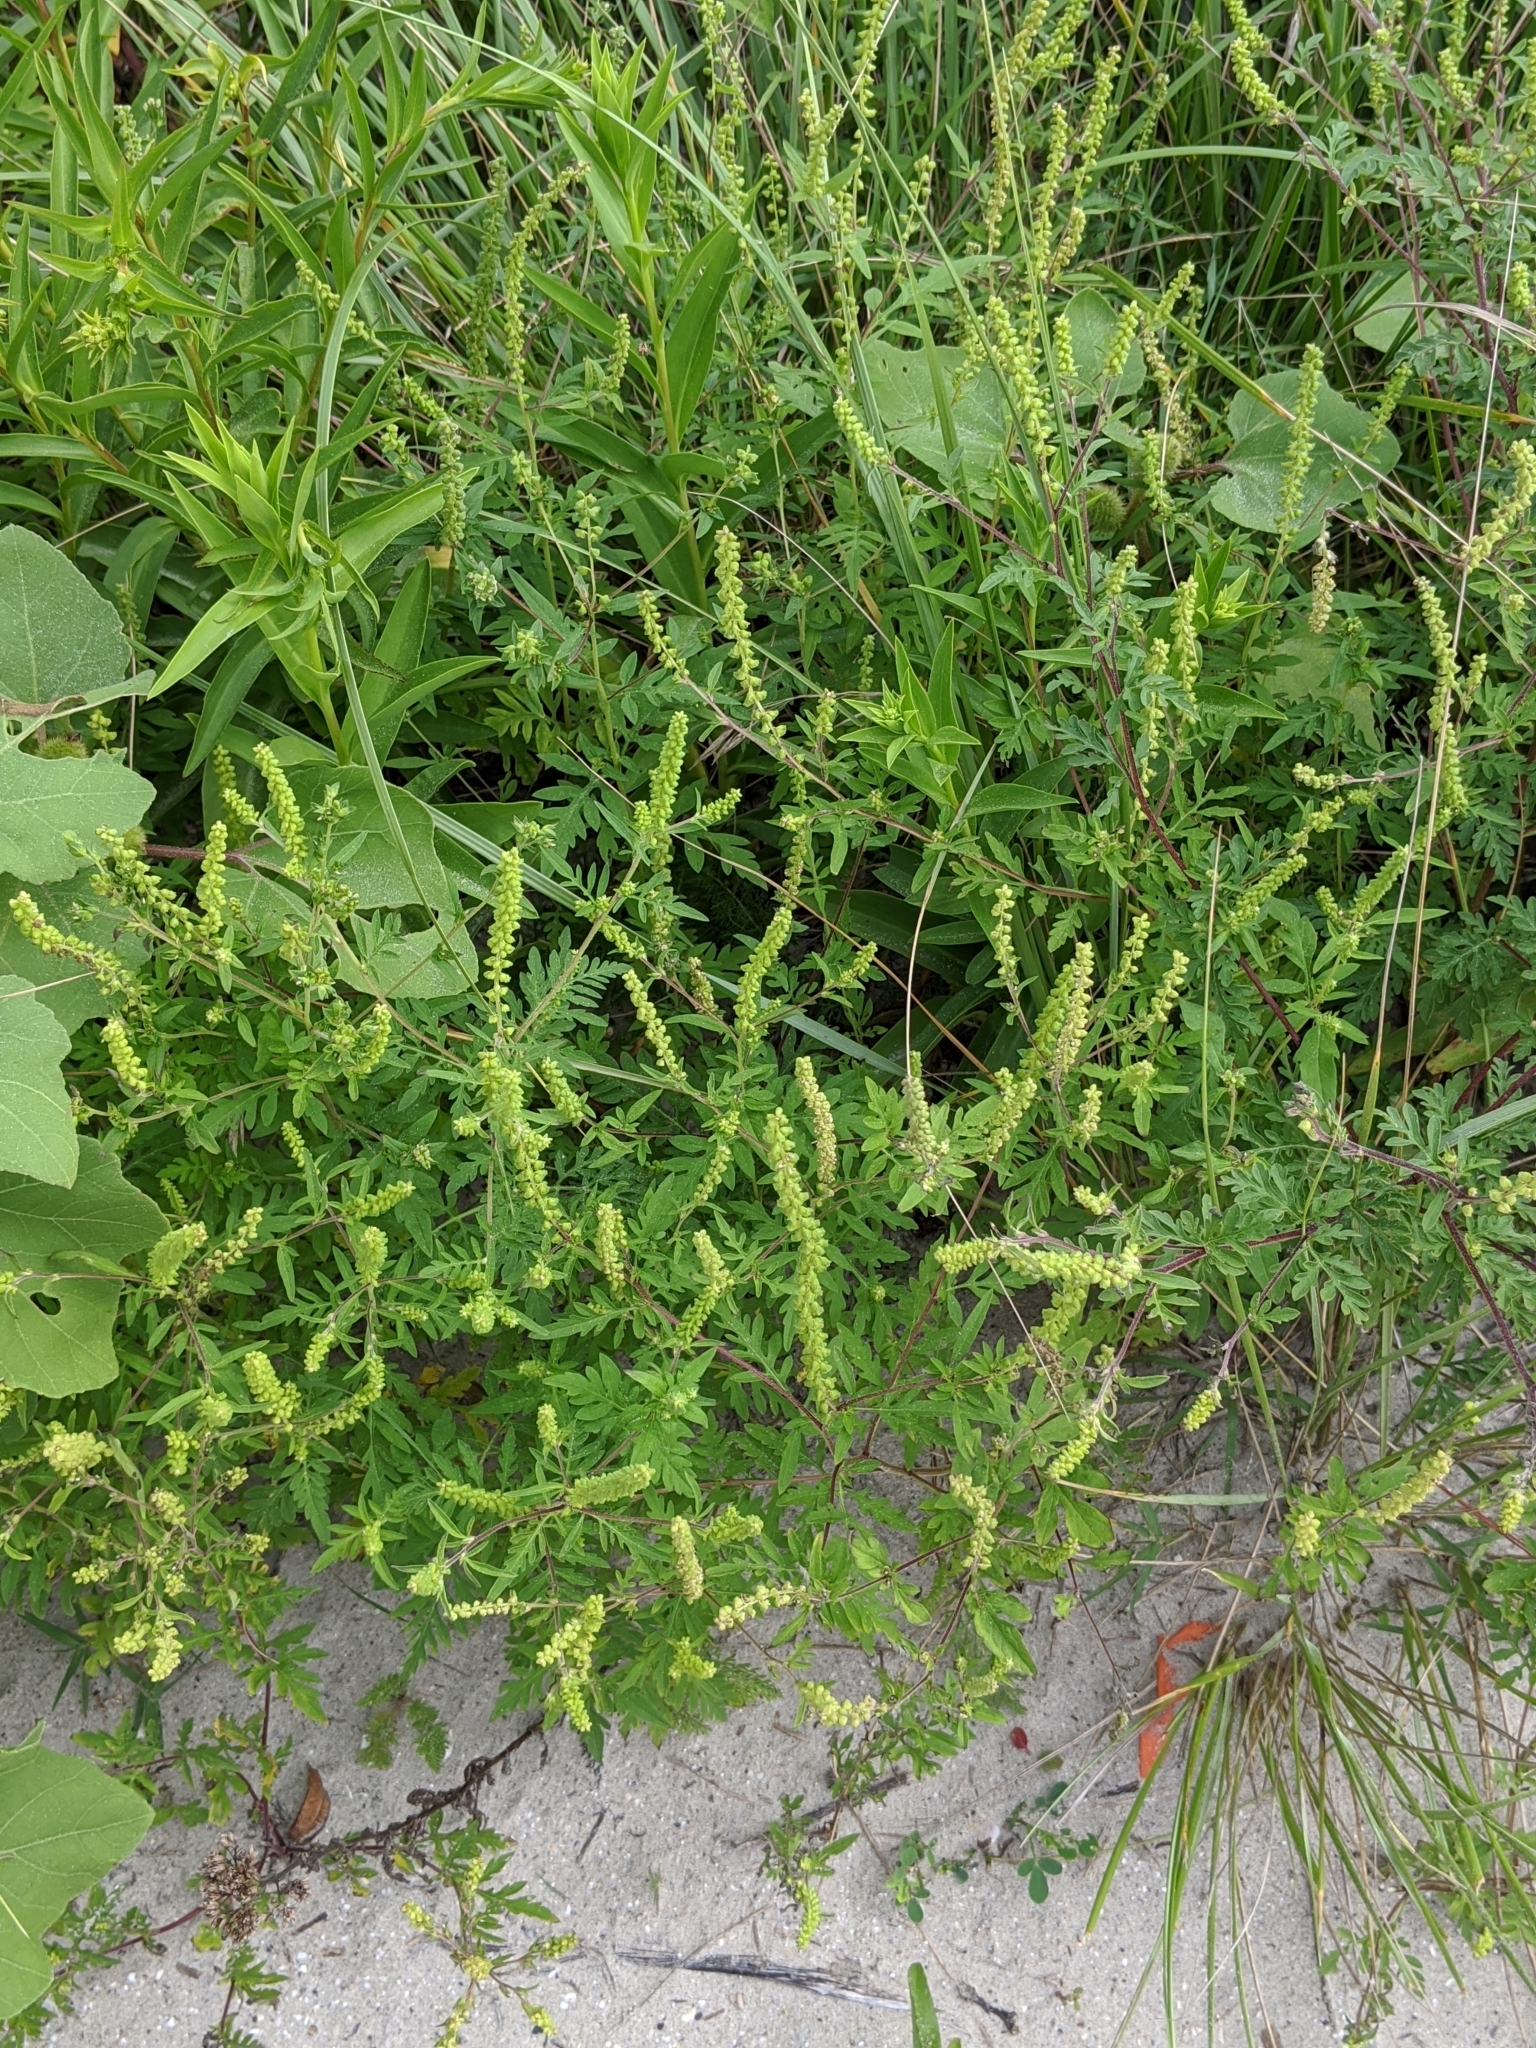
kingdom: Plantae
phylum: Tracheophyta
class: Magnoliopsida
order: Asterales
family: Asteraceae
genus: Ambrosia
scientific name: Ambrosia artemisiifolia
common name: Annual ragweed
